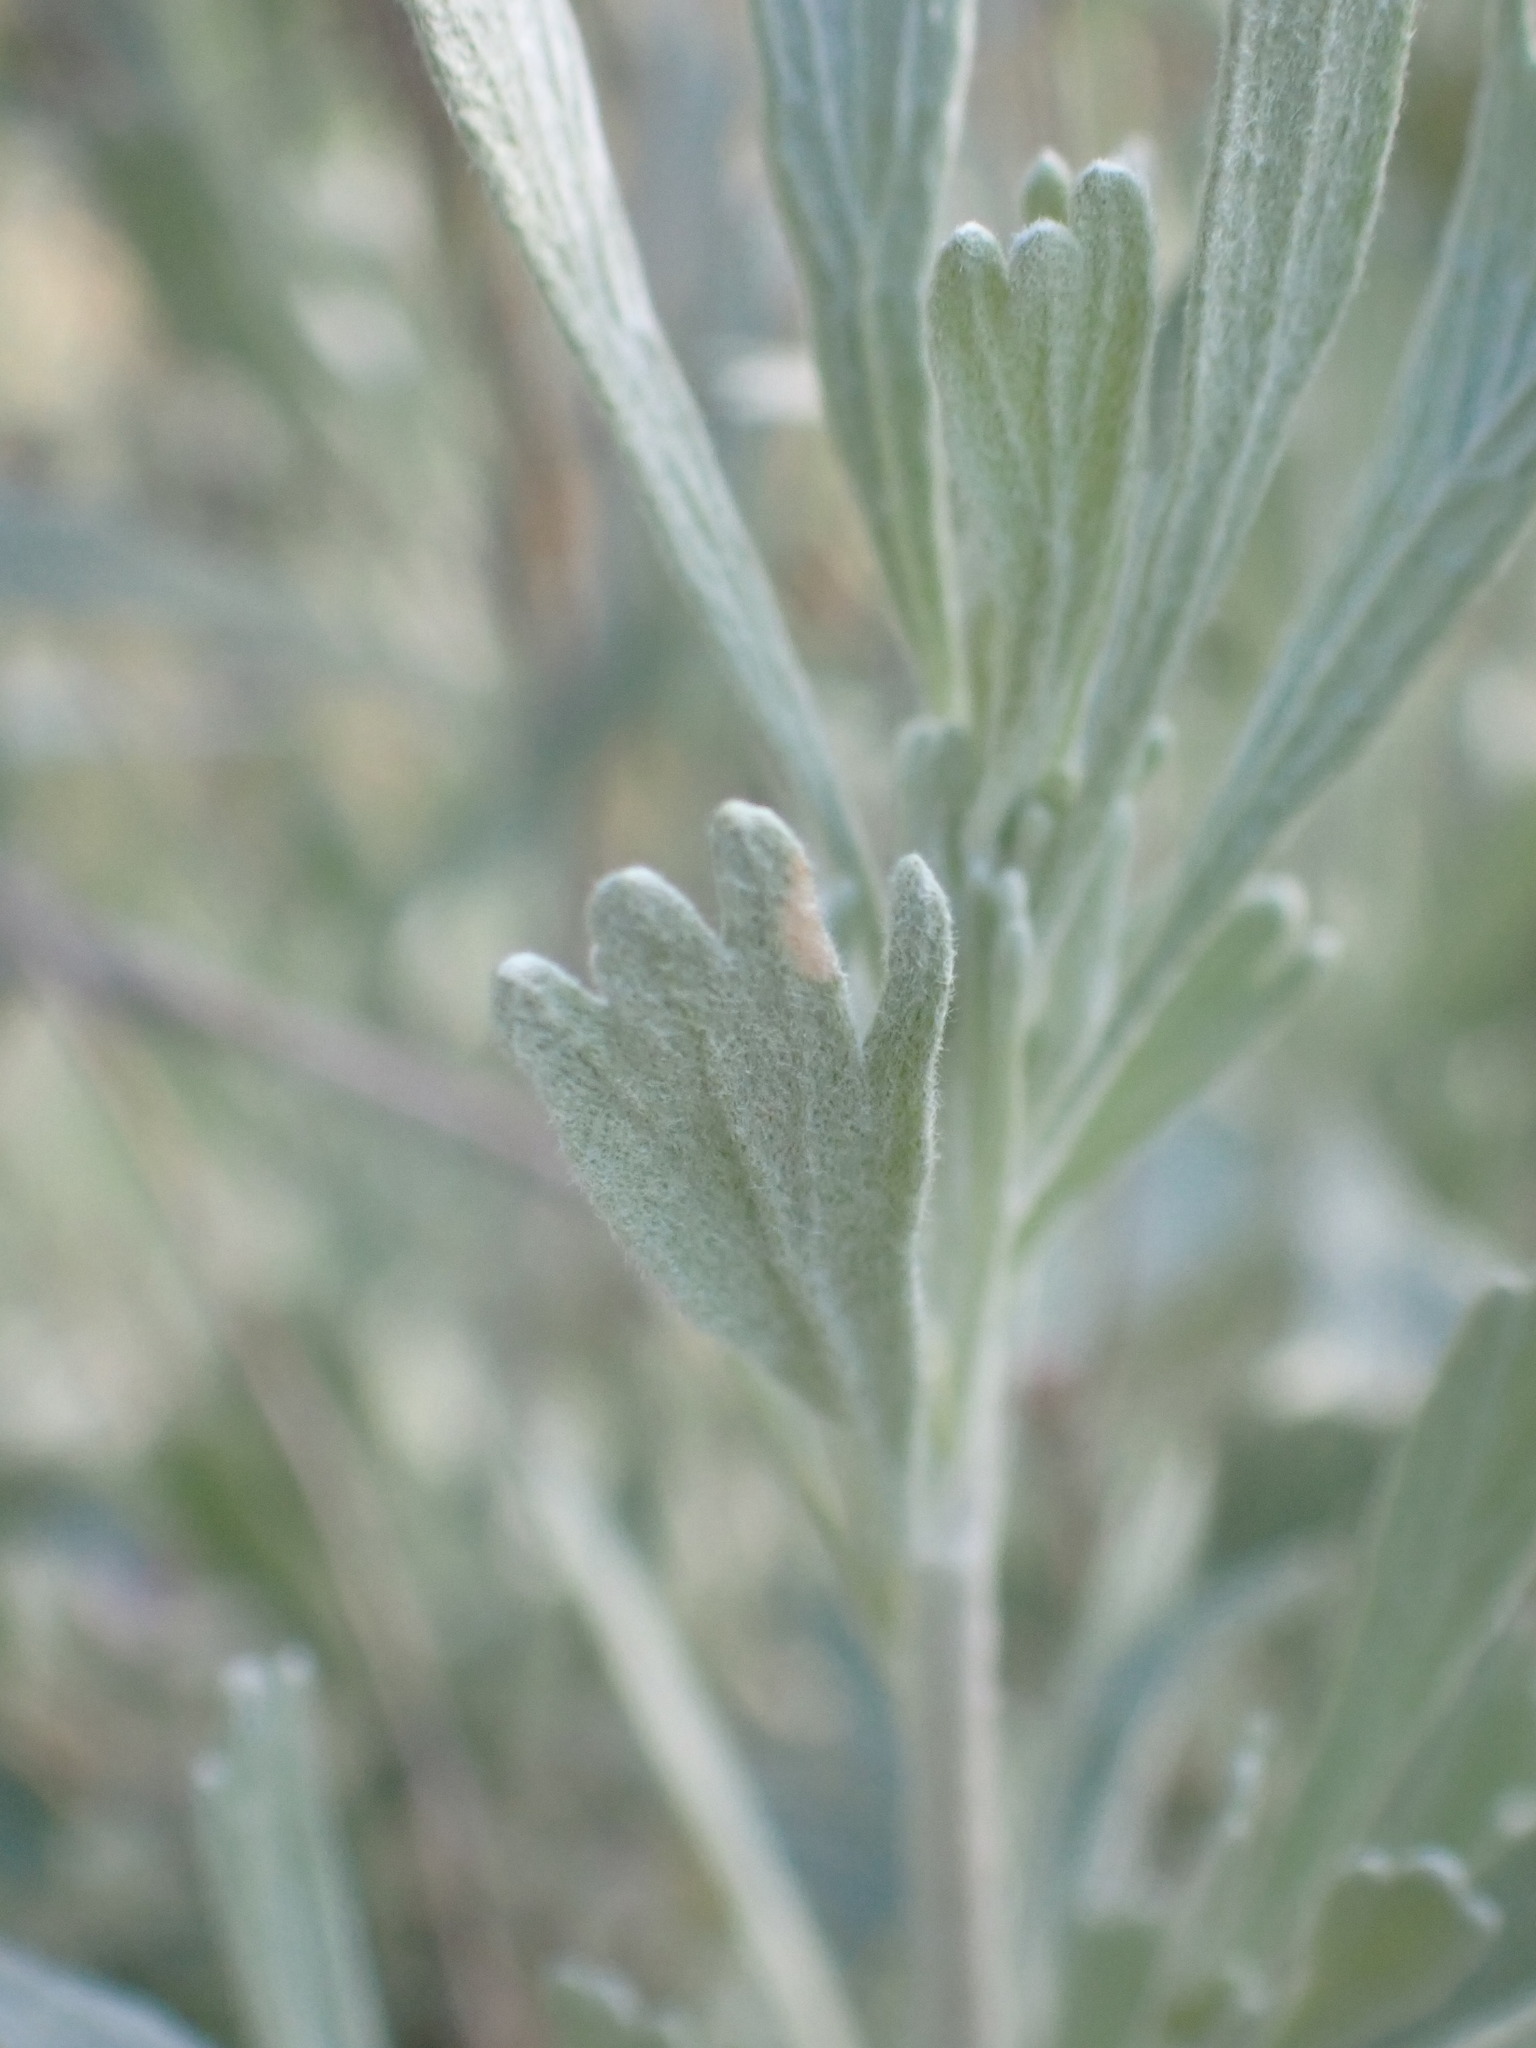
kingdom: Plantae
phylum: Tracheophyta
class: Magnoliopsida
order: Asterales
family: Asteraceae
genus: Artemisia
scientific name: Artemisia tridentata
